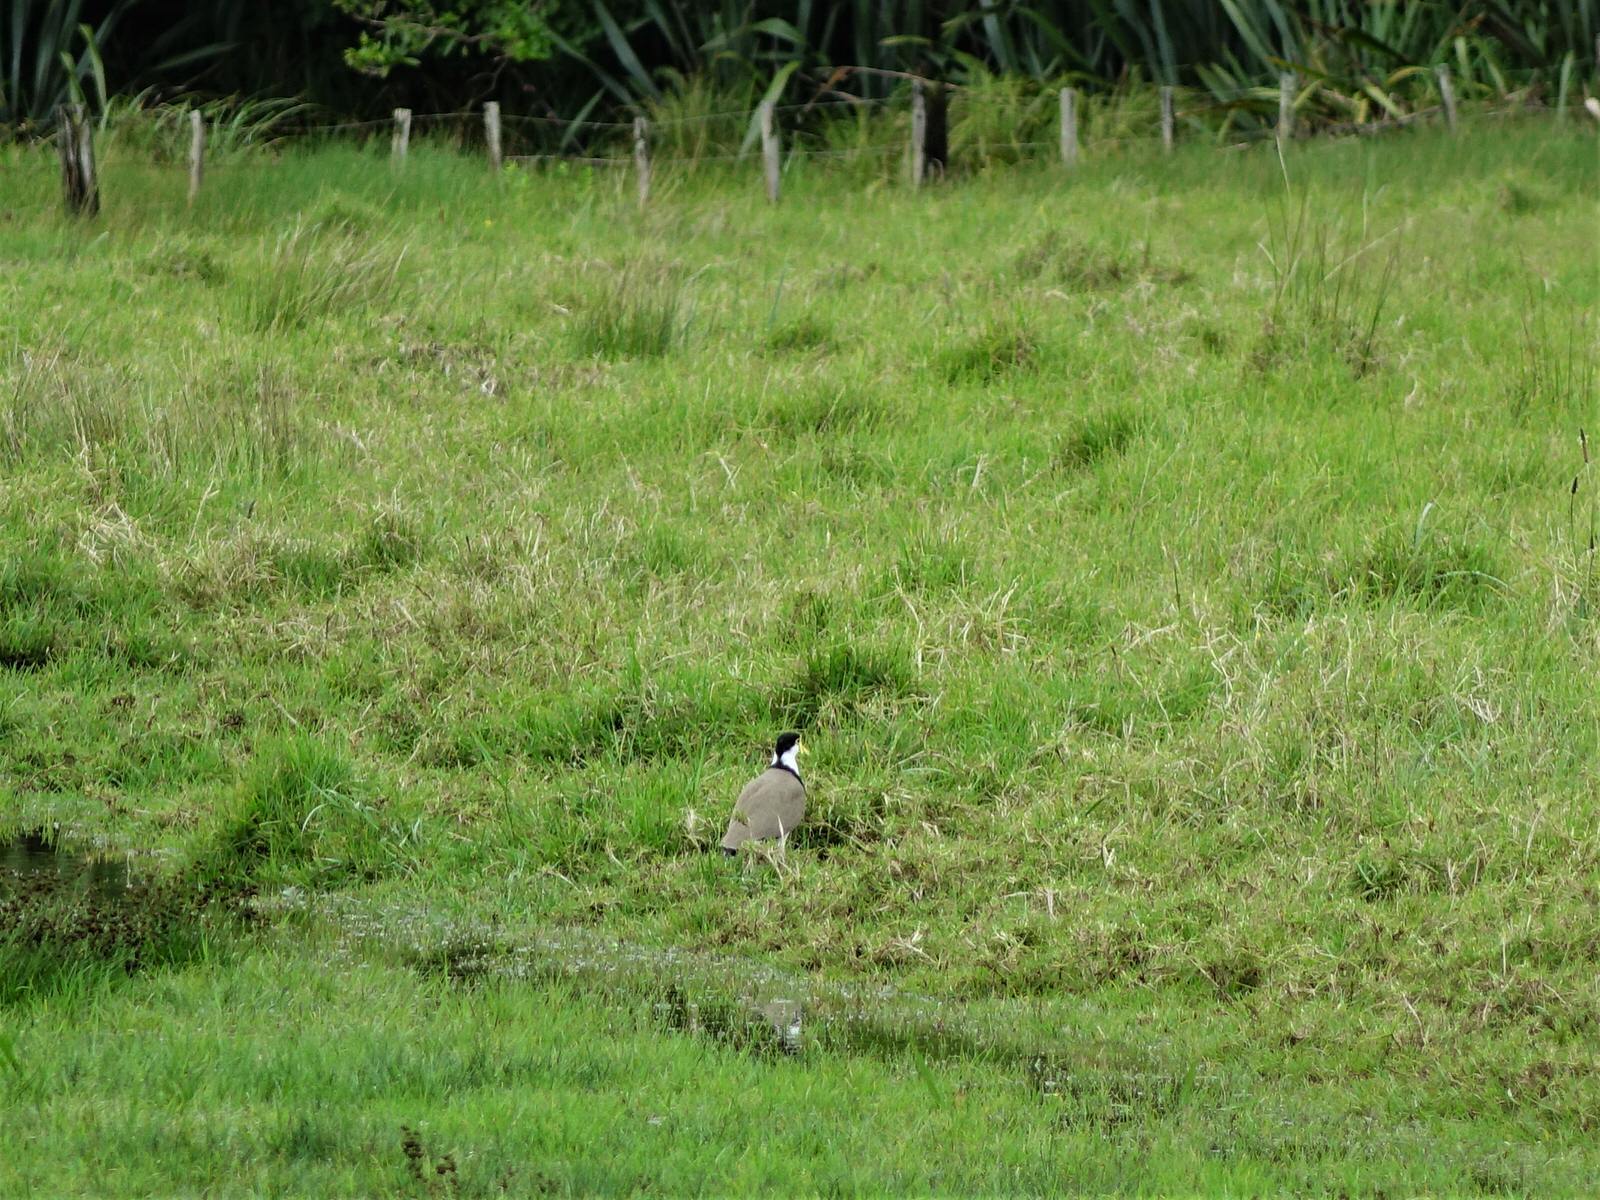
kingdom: Animalia
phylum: Chordata
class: Aves
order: Charadriiformes
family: Charadriidae
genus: Vanellus
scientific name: Vanellus miles
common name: Masked lapwing
